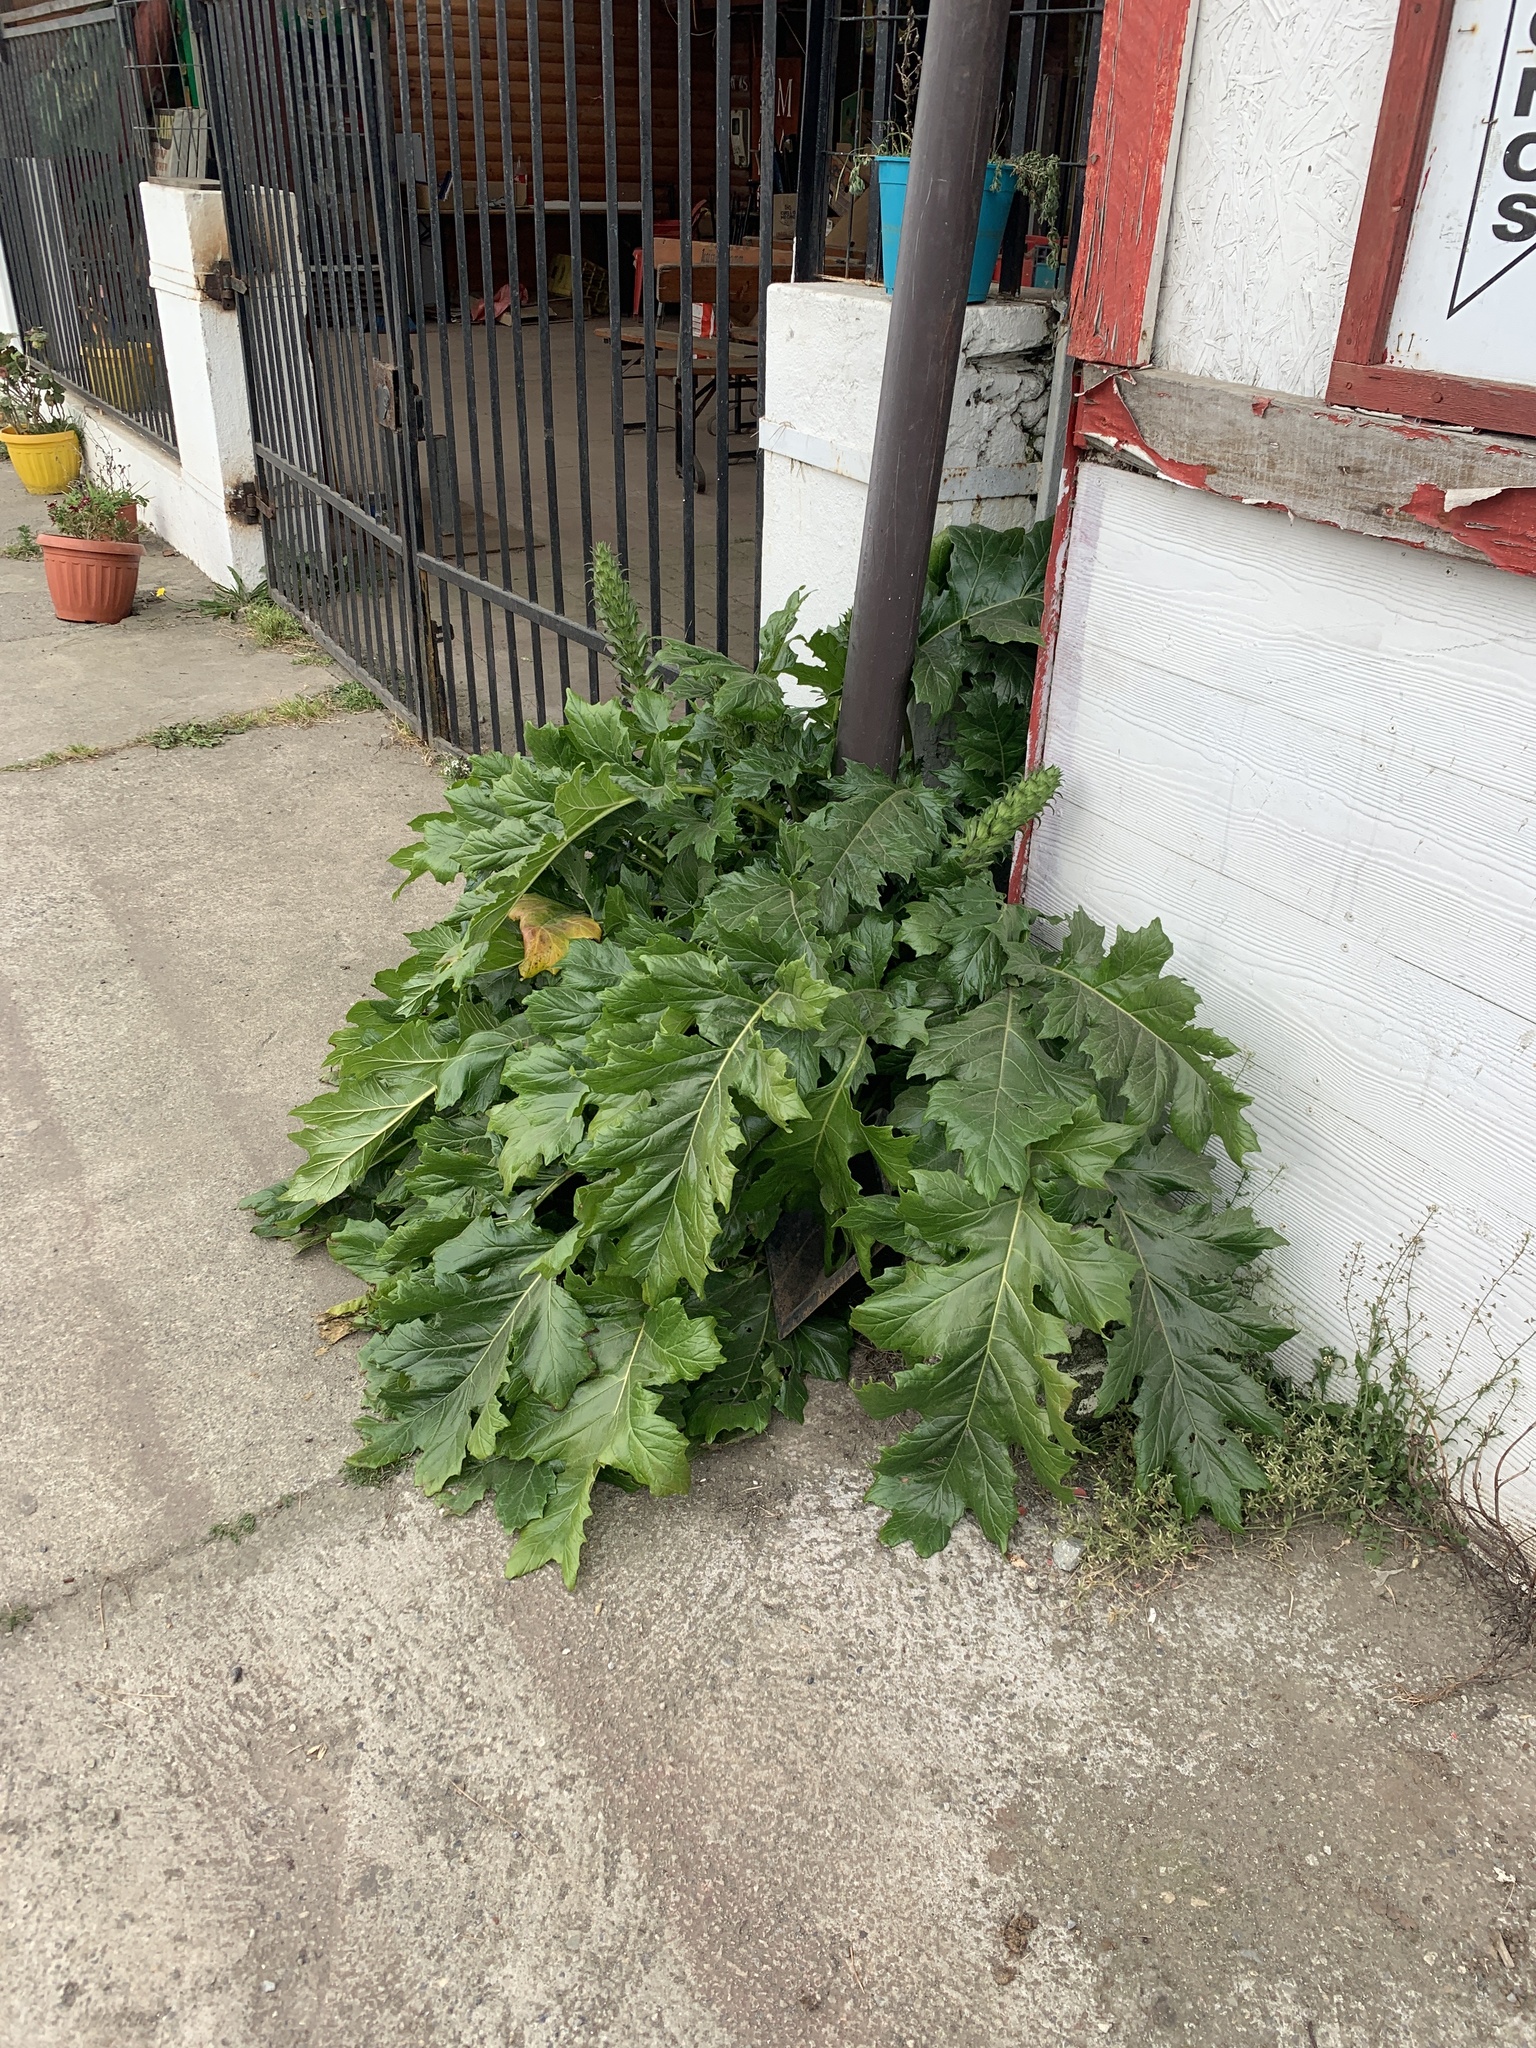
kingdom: Plantae
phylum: Tracheophyta
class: Magnoliopsida
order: Lamiales
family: Acanthaceae
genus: Acanthus
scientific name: Acanthus mollis
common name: Bear's-breech
